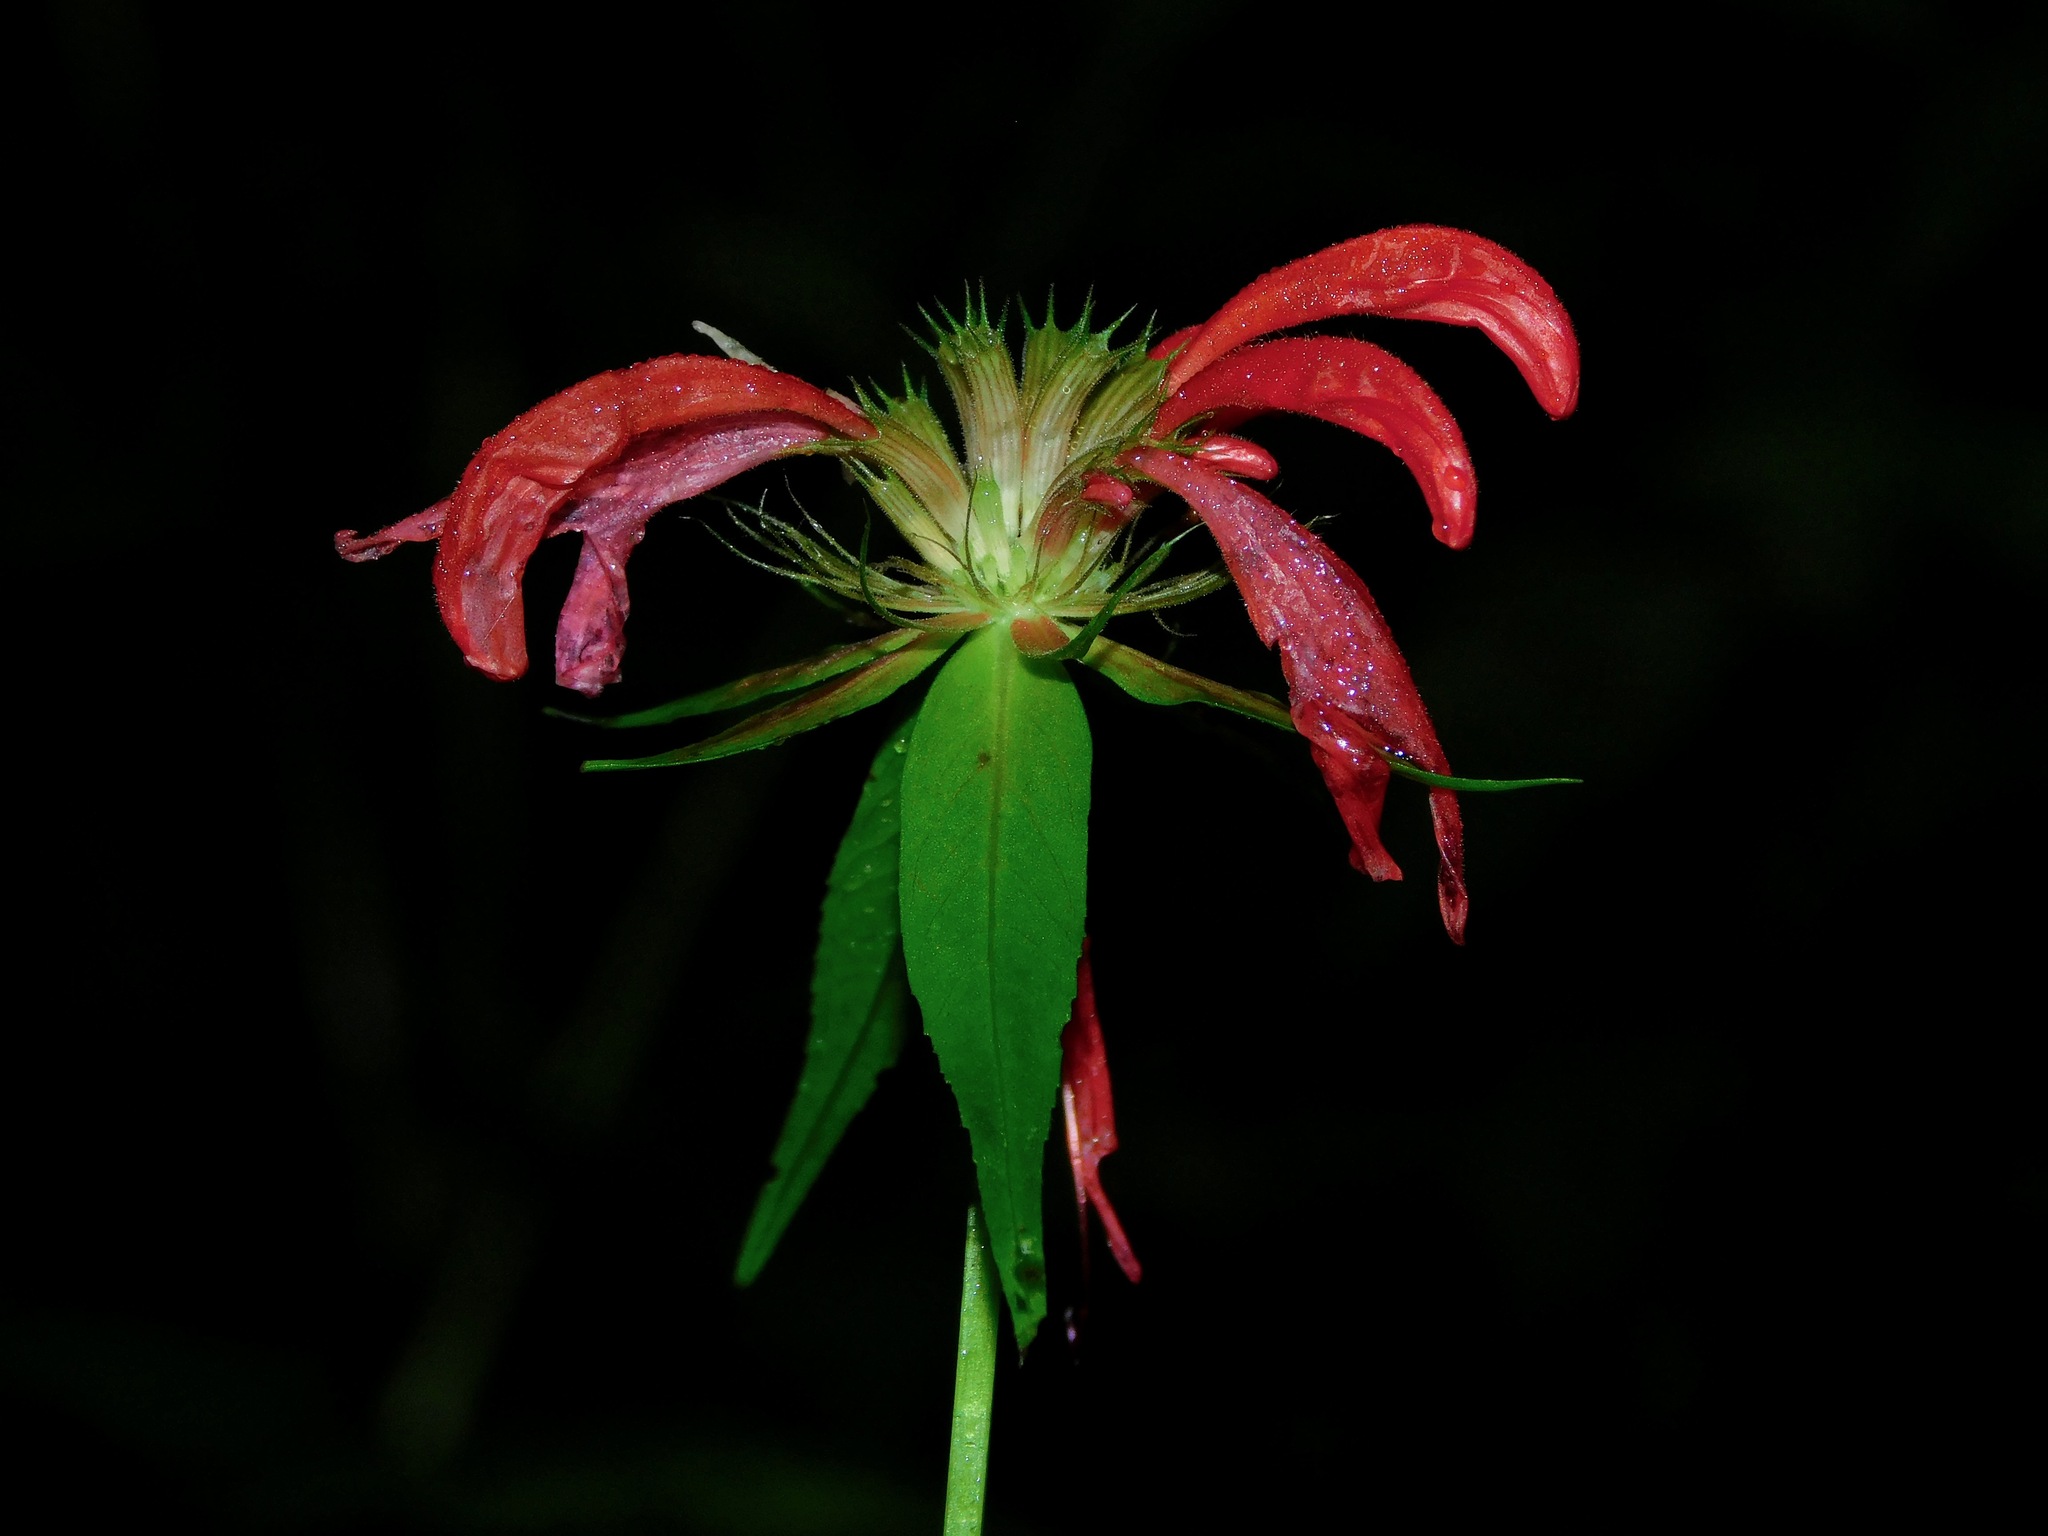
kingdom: Plantae
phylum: Tracheophyta
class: Magnoliopsida
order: Lamiales
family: Lamiaceae
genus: Monarda
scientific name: Monarda didyma
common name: Beebalm
